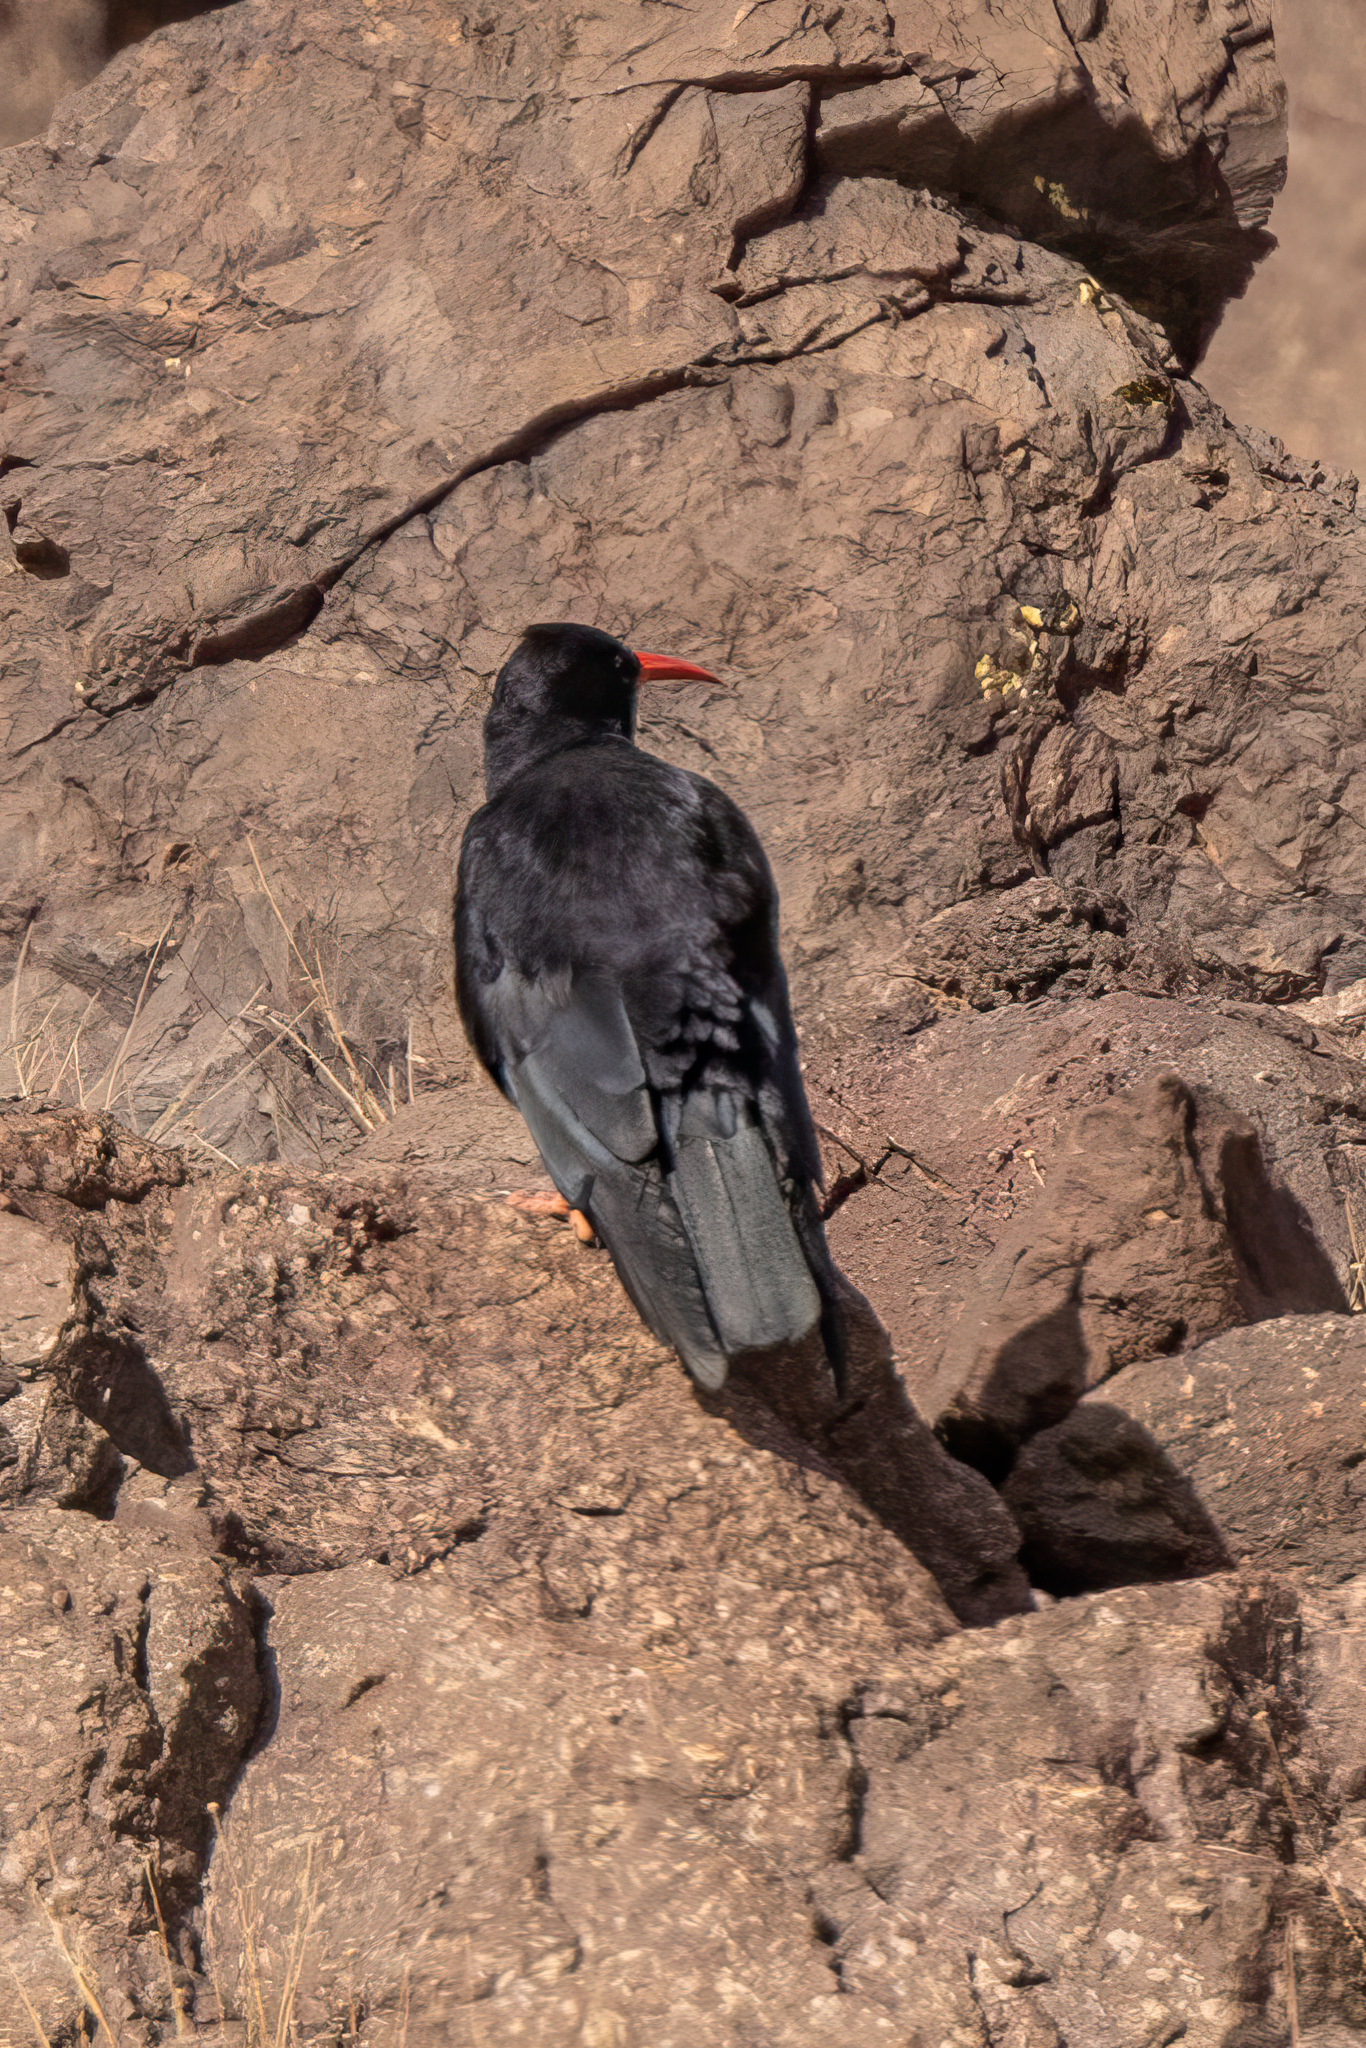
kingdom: Animalia
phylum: Chordata
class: Aves
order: Passeriformes
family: Corvidae
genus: Pyrrhocorax
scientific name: Pyrrhocorax pyrrhocorax
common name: Red-billed chough
